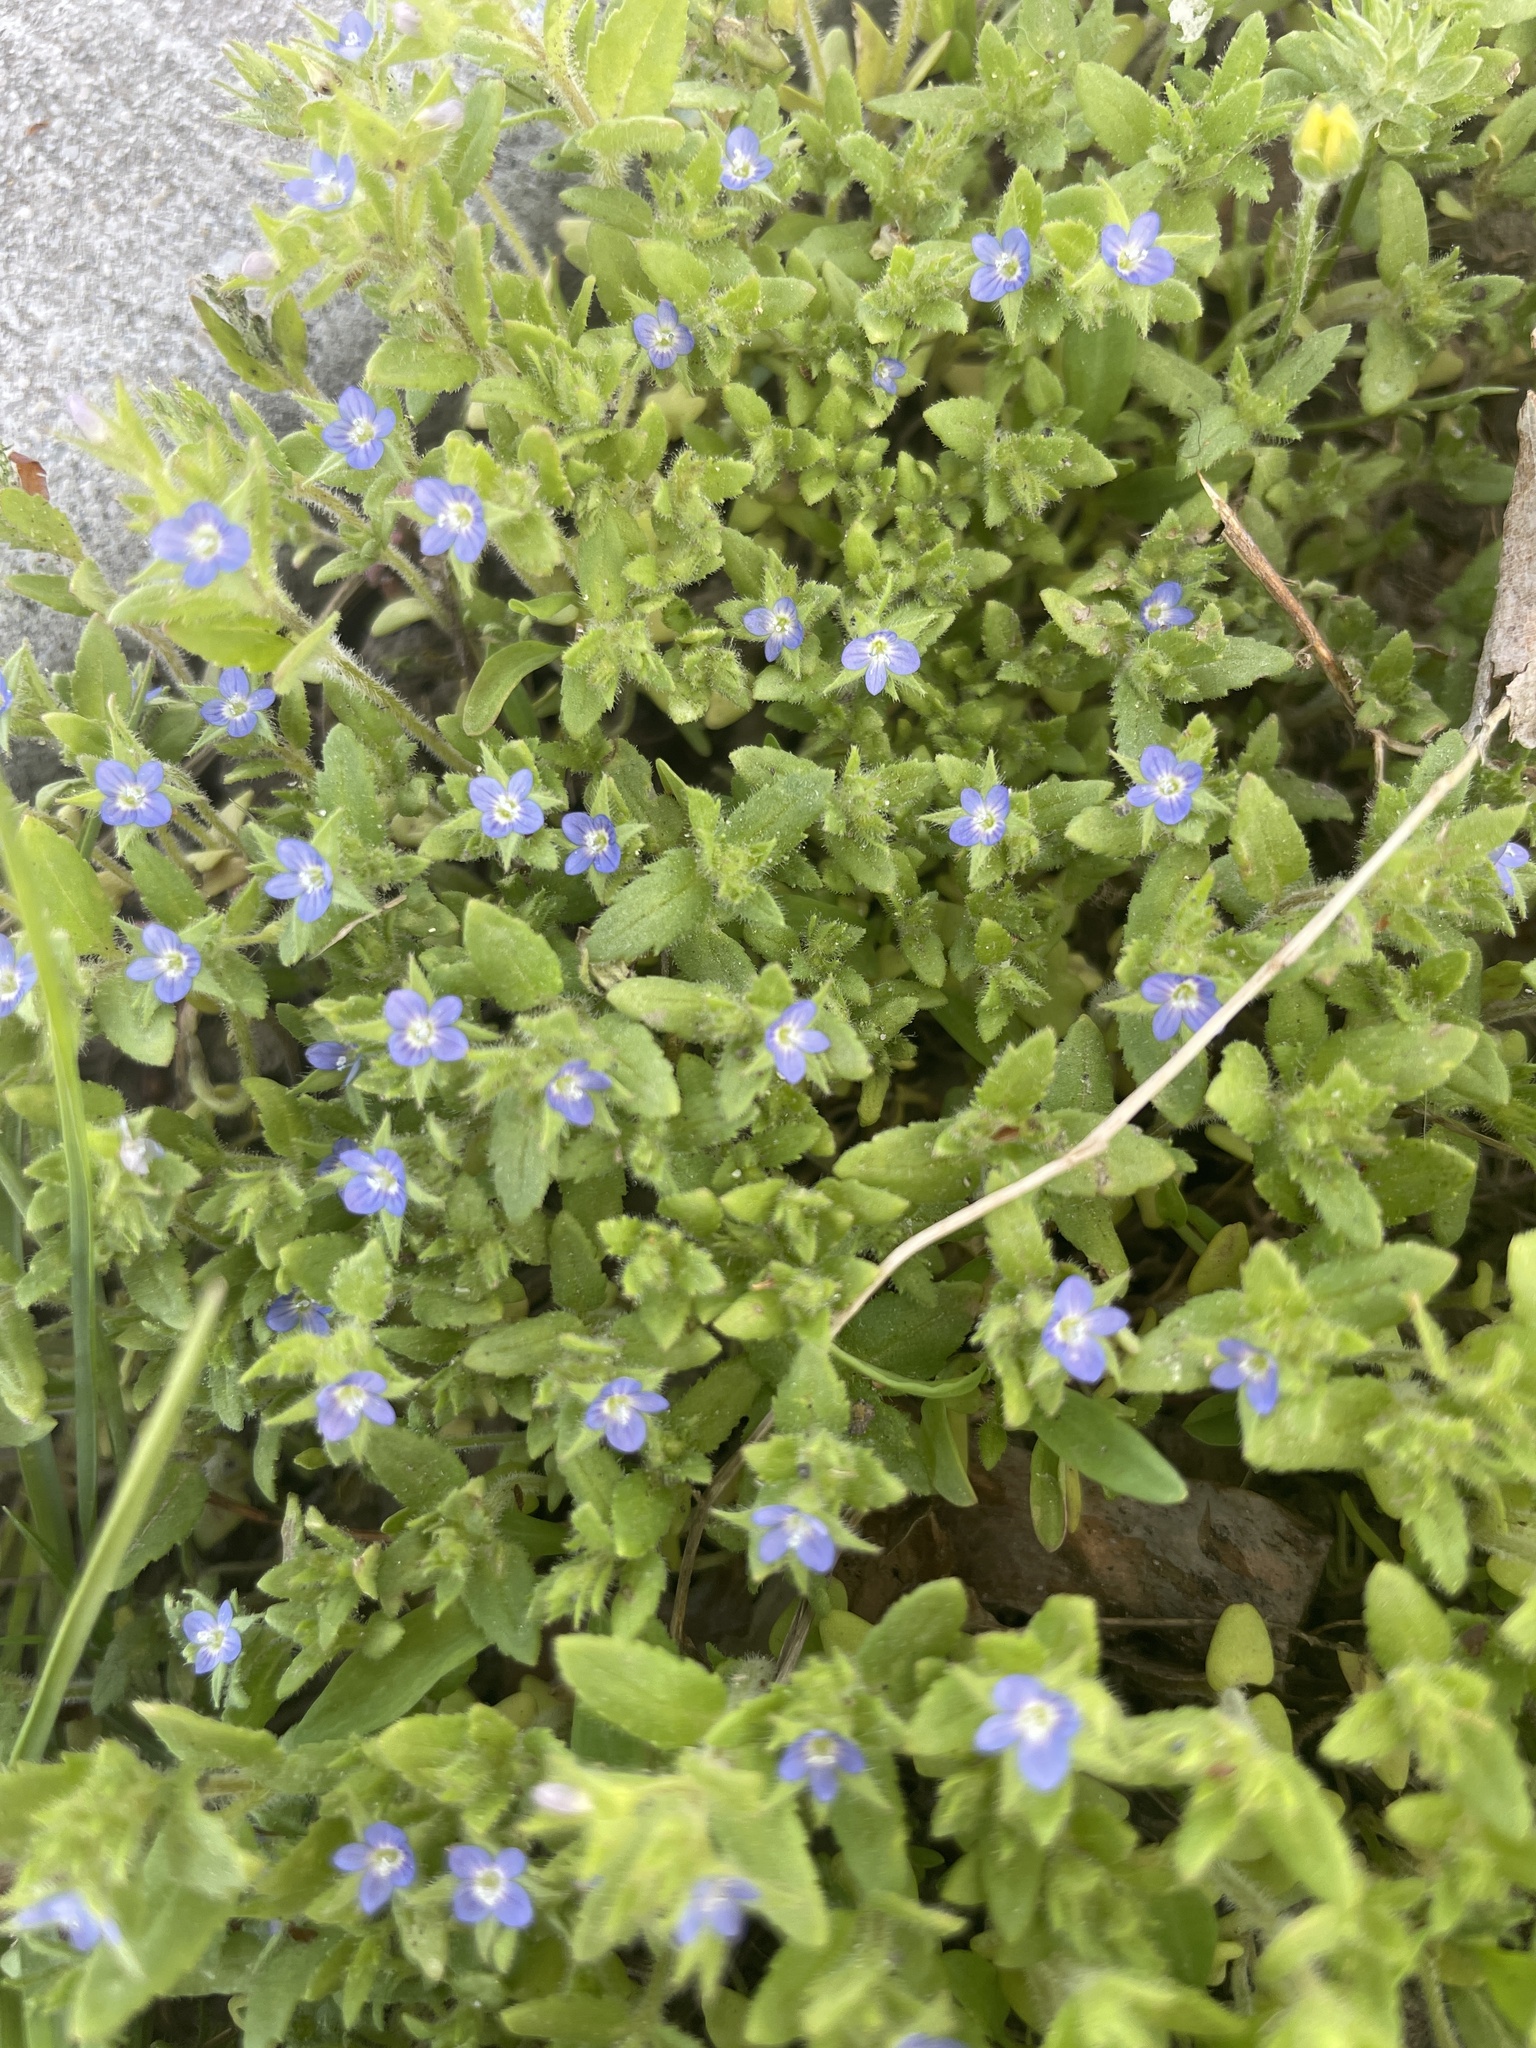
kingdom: Plantae
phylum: Tracheophyta
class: Magnoliopsida
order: Lamiales
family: Plantaginaceae
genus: Veronica
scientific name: Veronica biloba
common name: Twolobe speedwell
